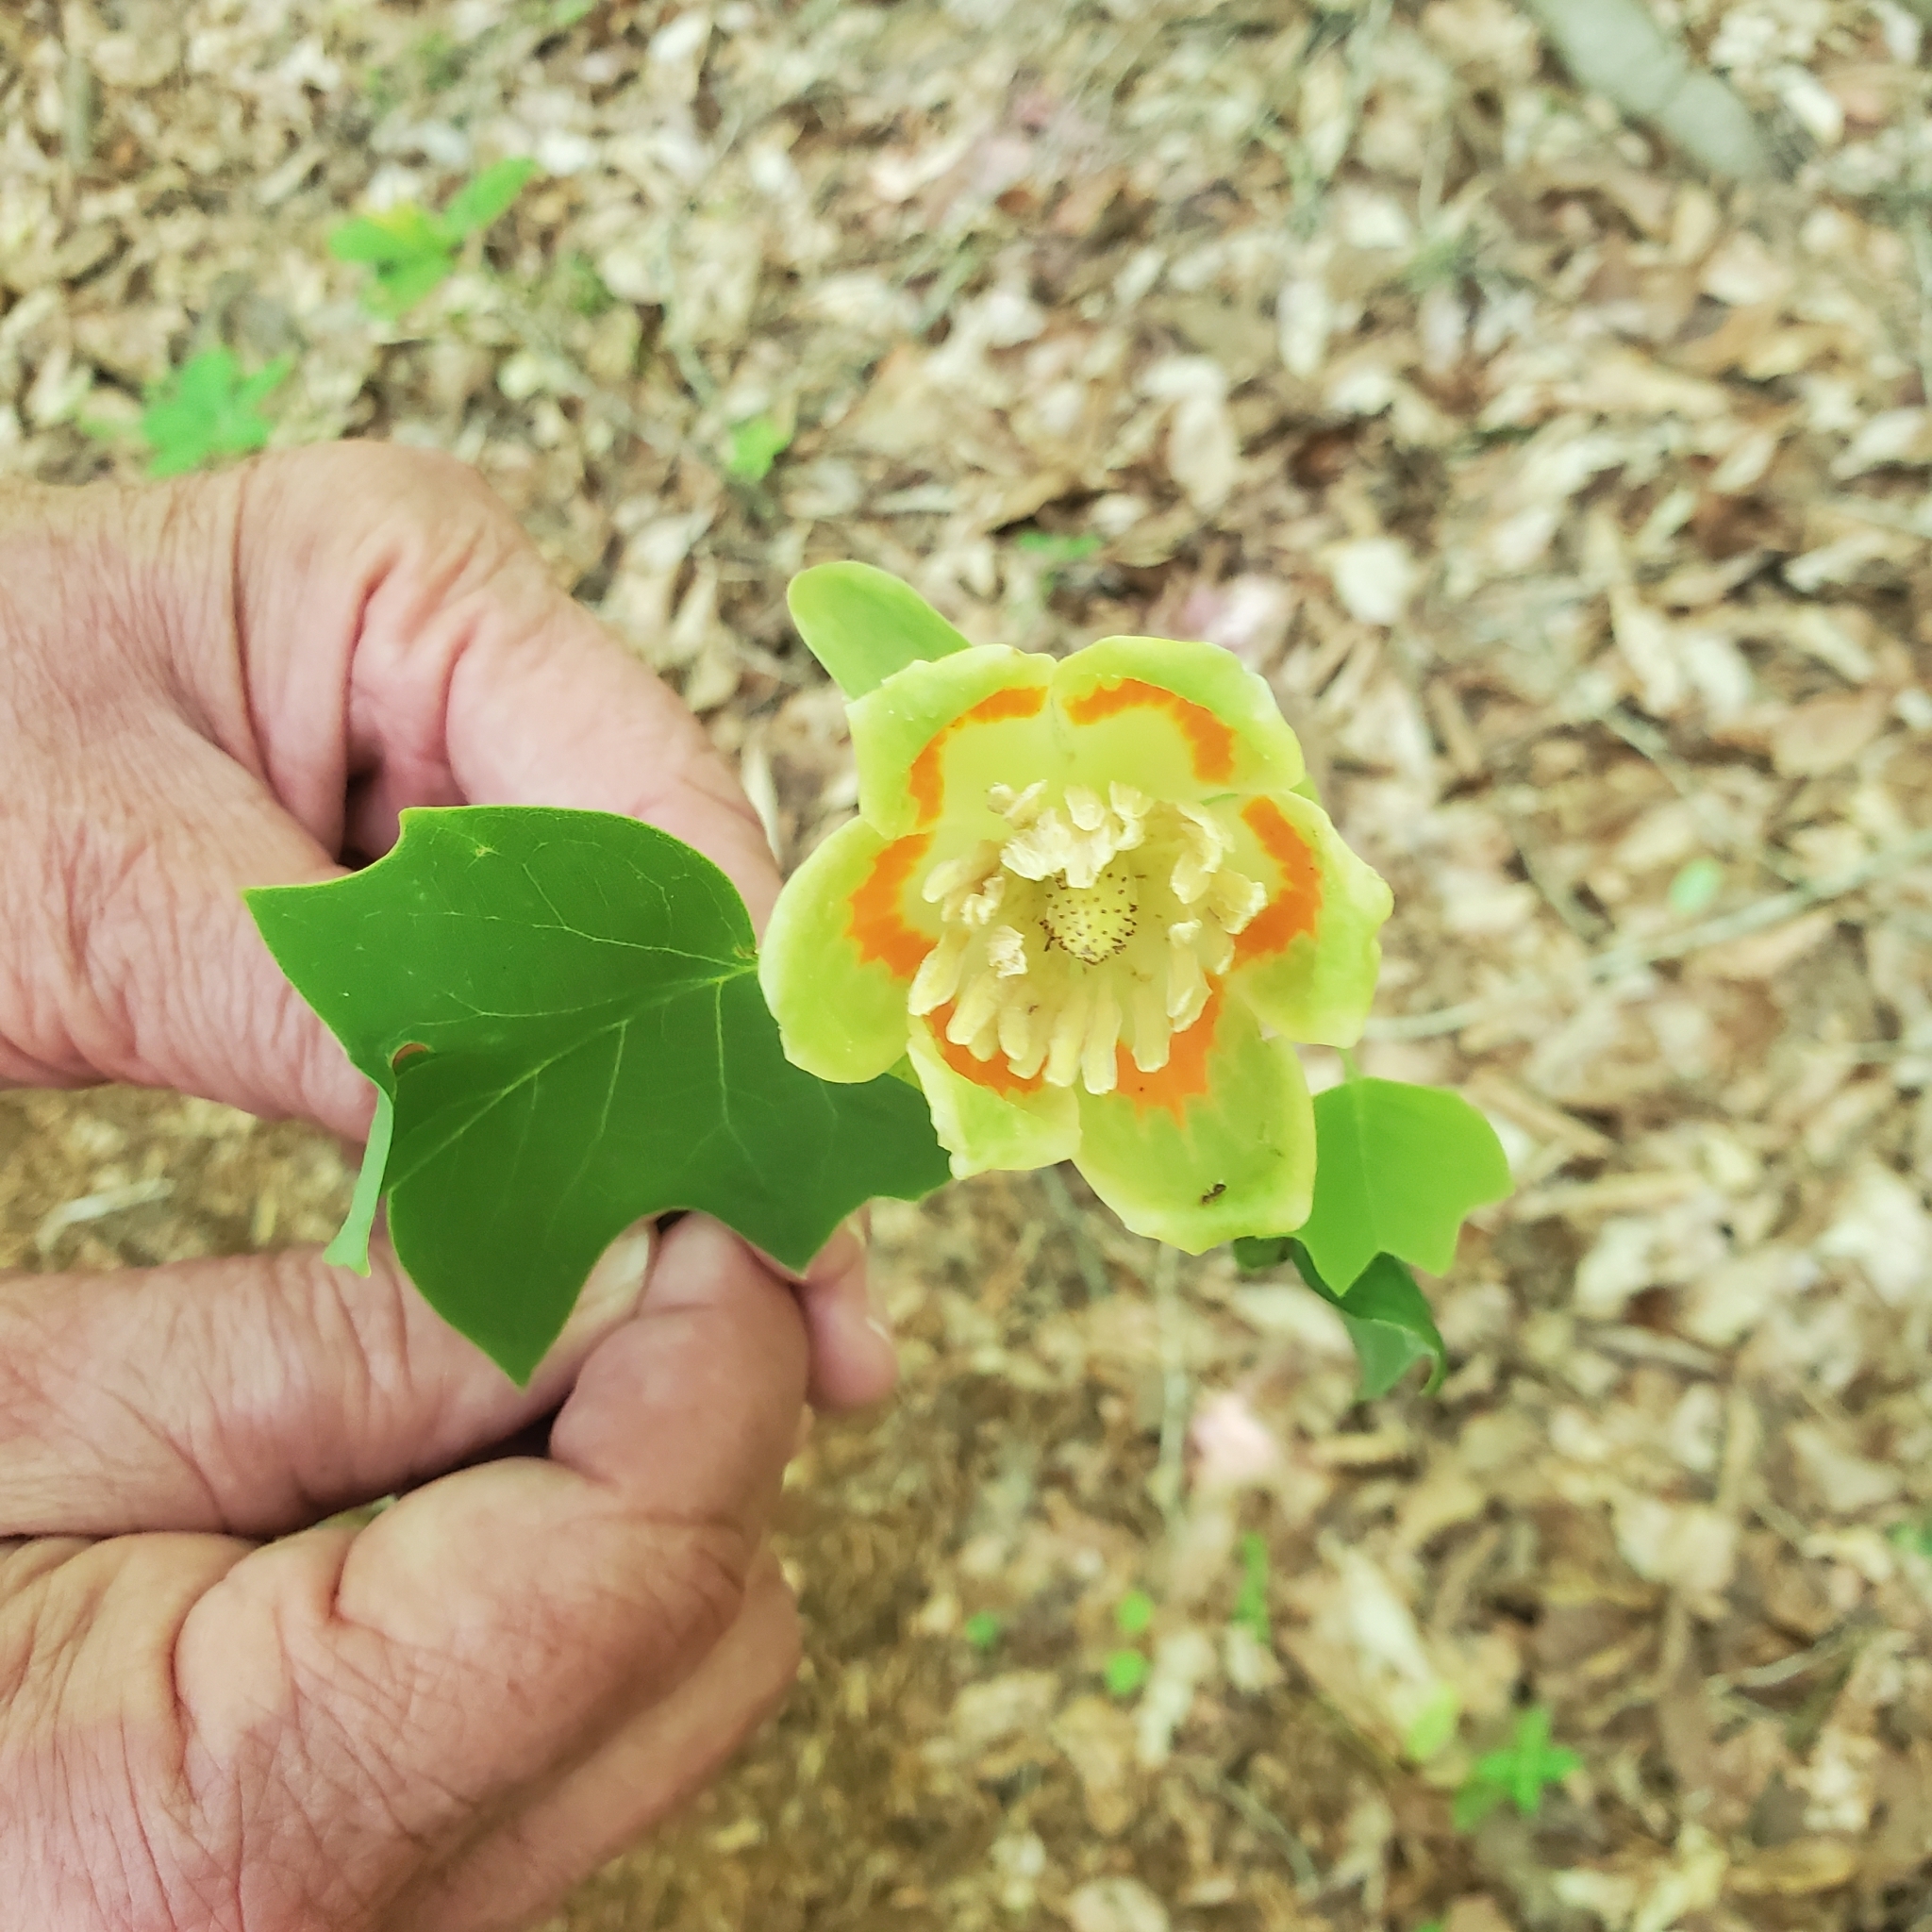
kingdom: Plantae
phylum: Tracheophyta
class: Magnoliopsida
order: Magnoliales
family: Magnoliaceae
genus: Liriodendron
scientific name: Liriodendron tulipifera
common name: Tulip tree
